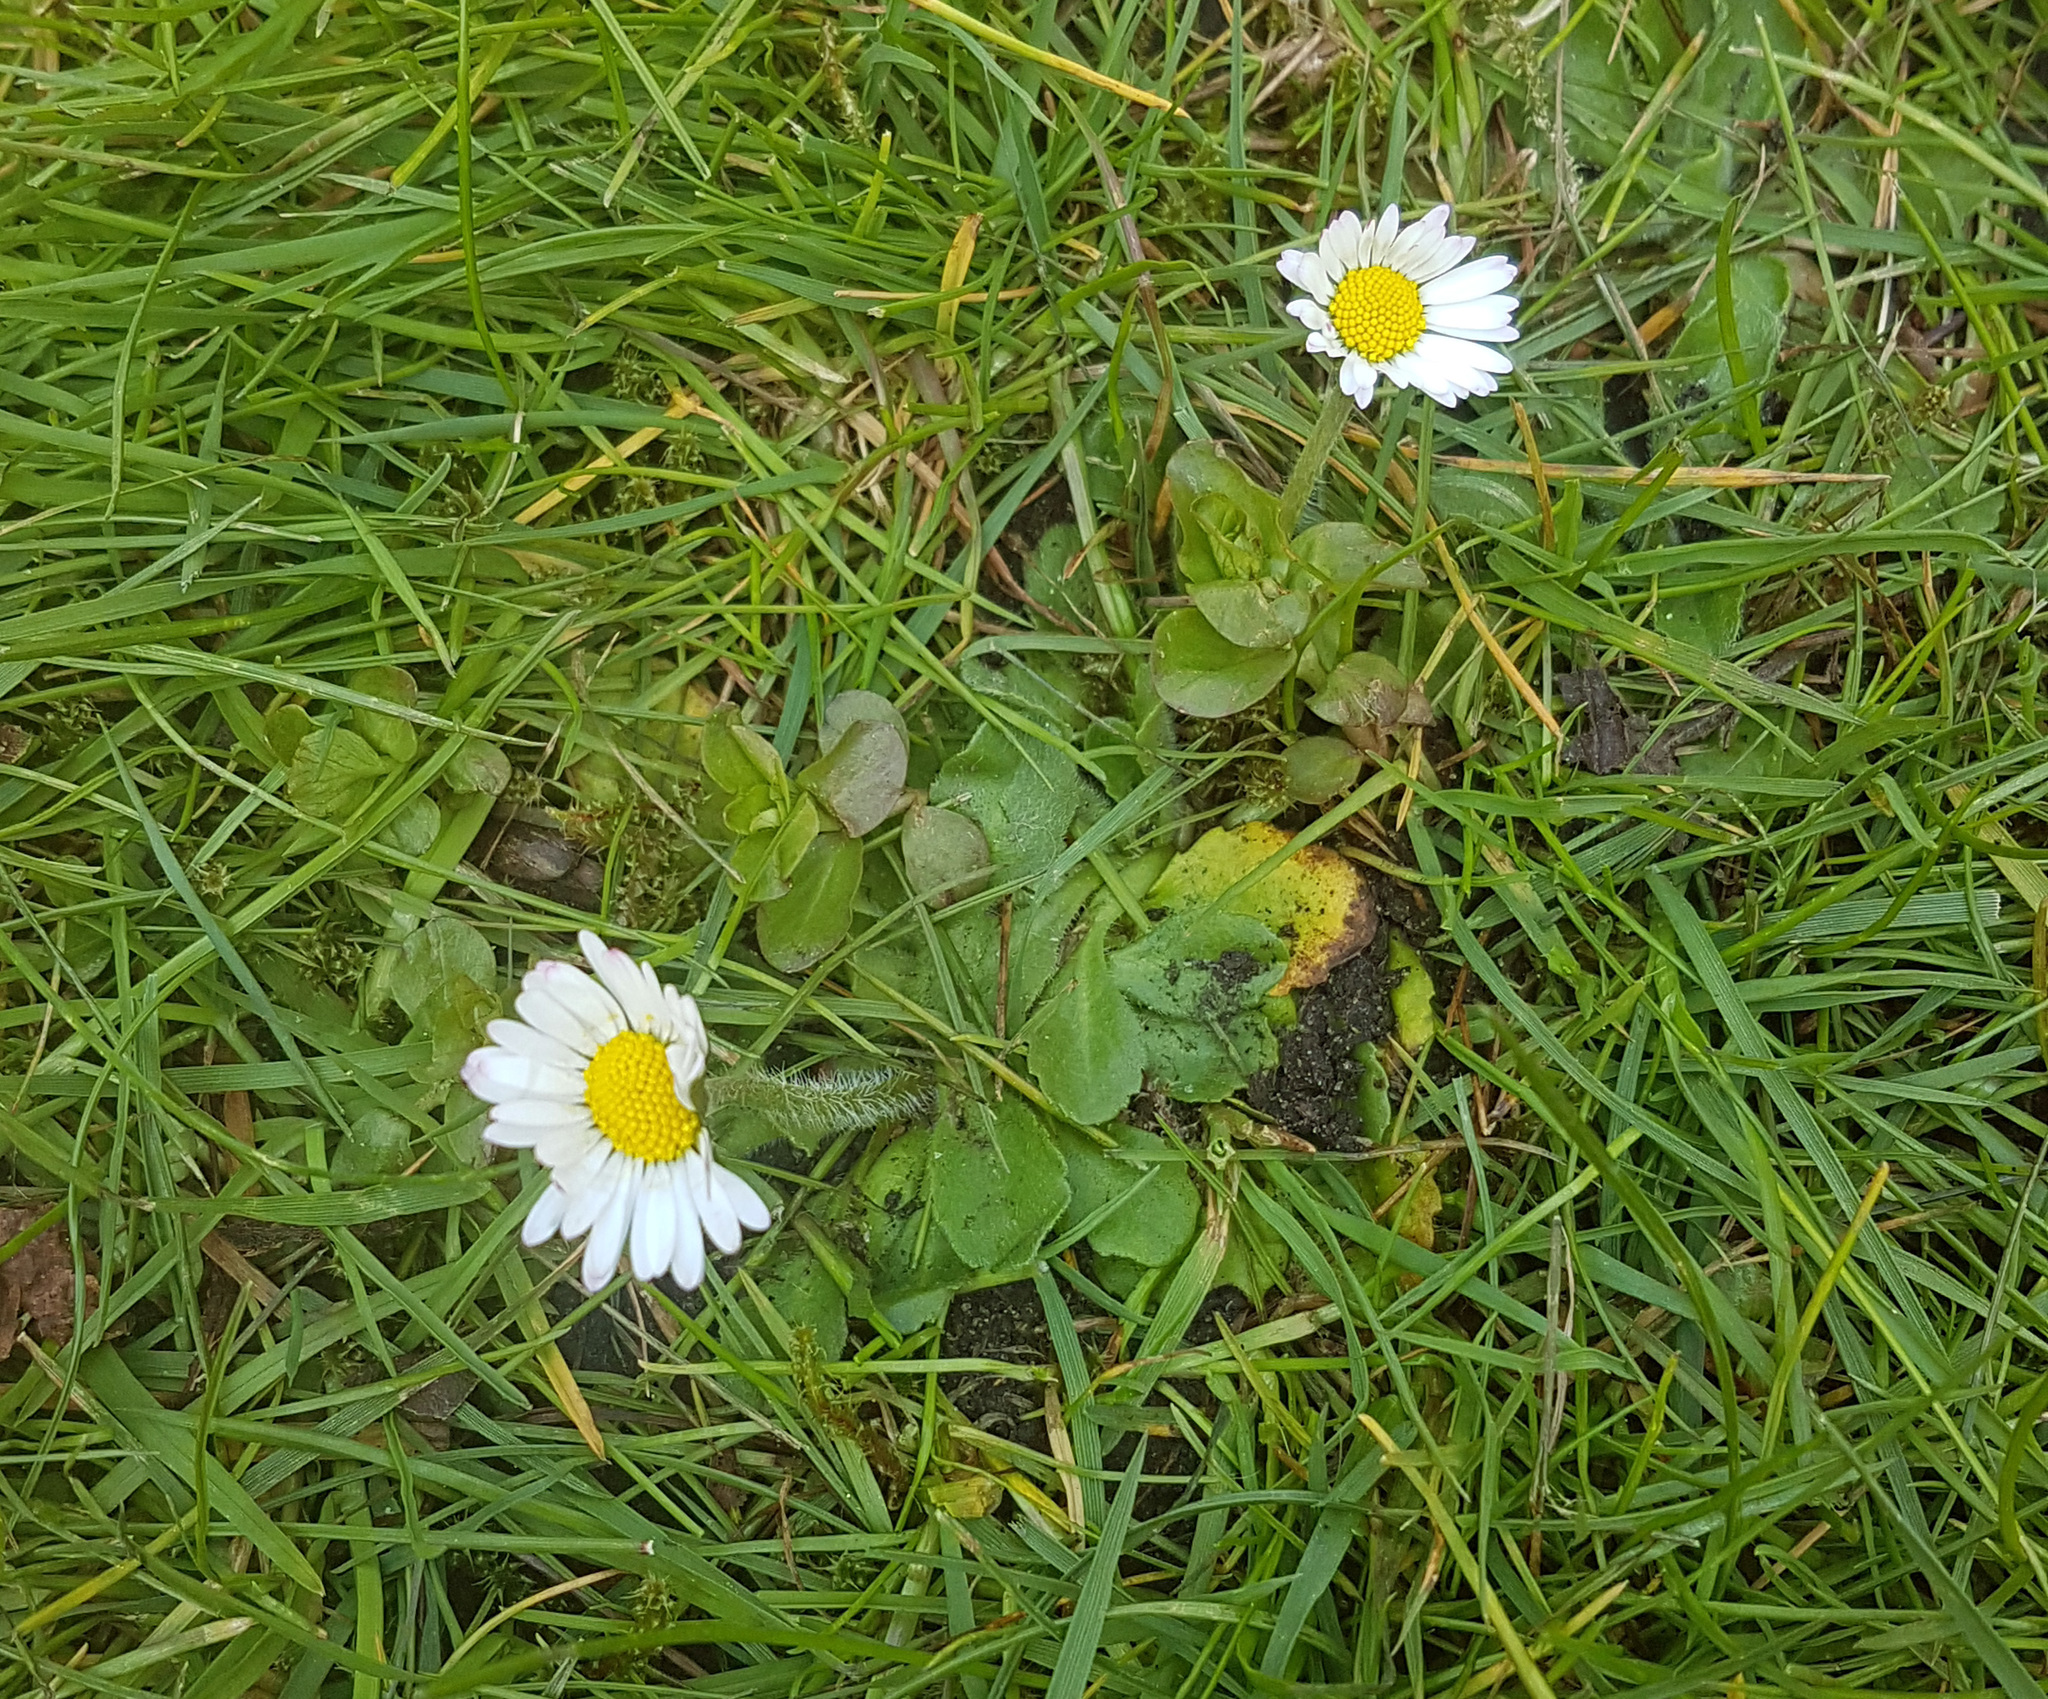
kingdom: Plantae
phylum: Tracheophyta
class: Magnoliopsida
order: Asterales
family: Asteraceae
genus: Bellis
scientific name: Bellis perennis
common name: Lawndaisy
